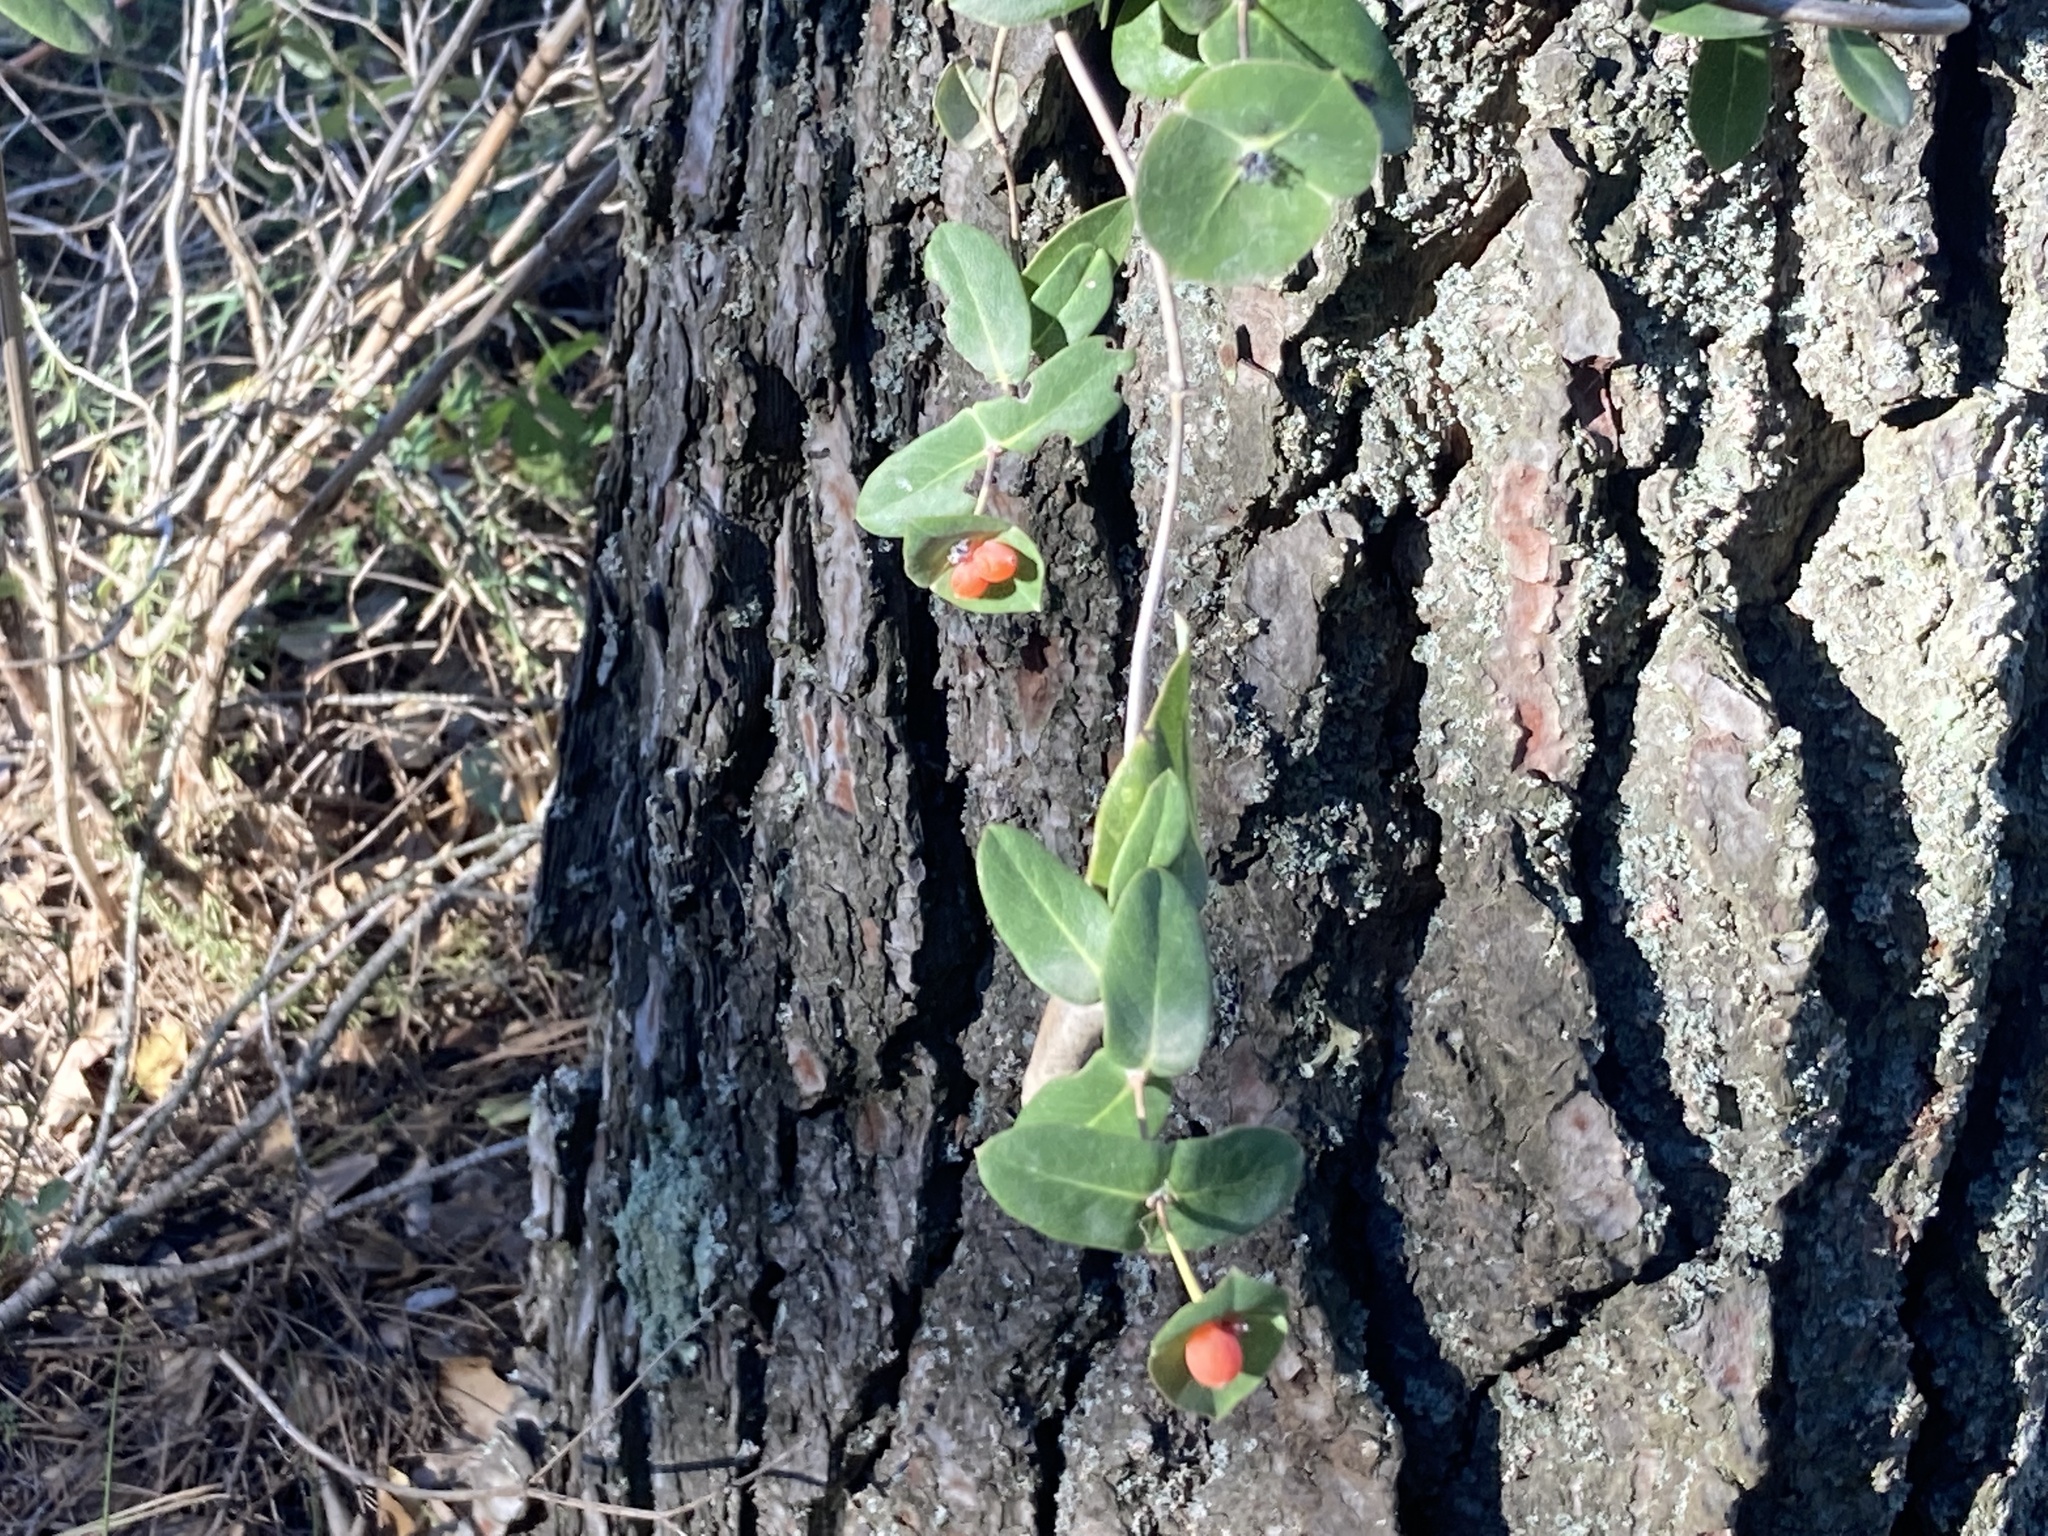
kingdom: Plantae
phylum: Tracheophyta
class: Magnoliopsida
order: Dipsacales
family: Caprifoliaceae
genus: Lonicera
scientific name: Lonicera implexa
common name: Minorca honeysuckle
